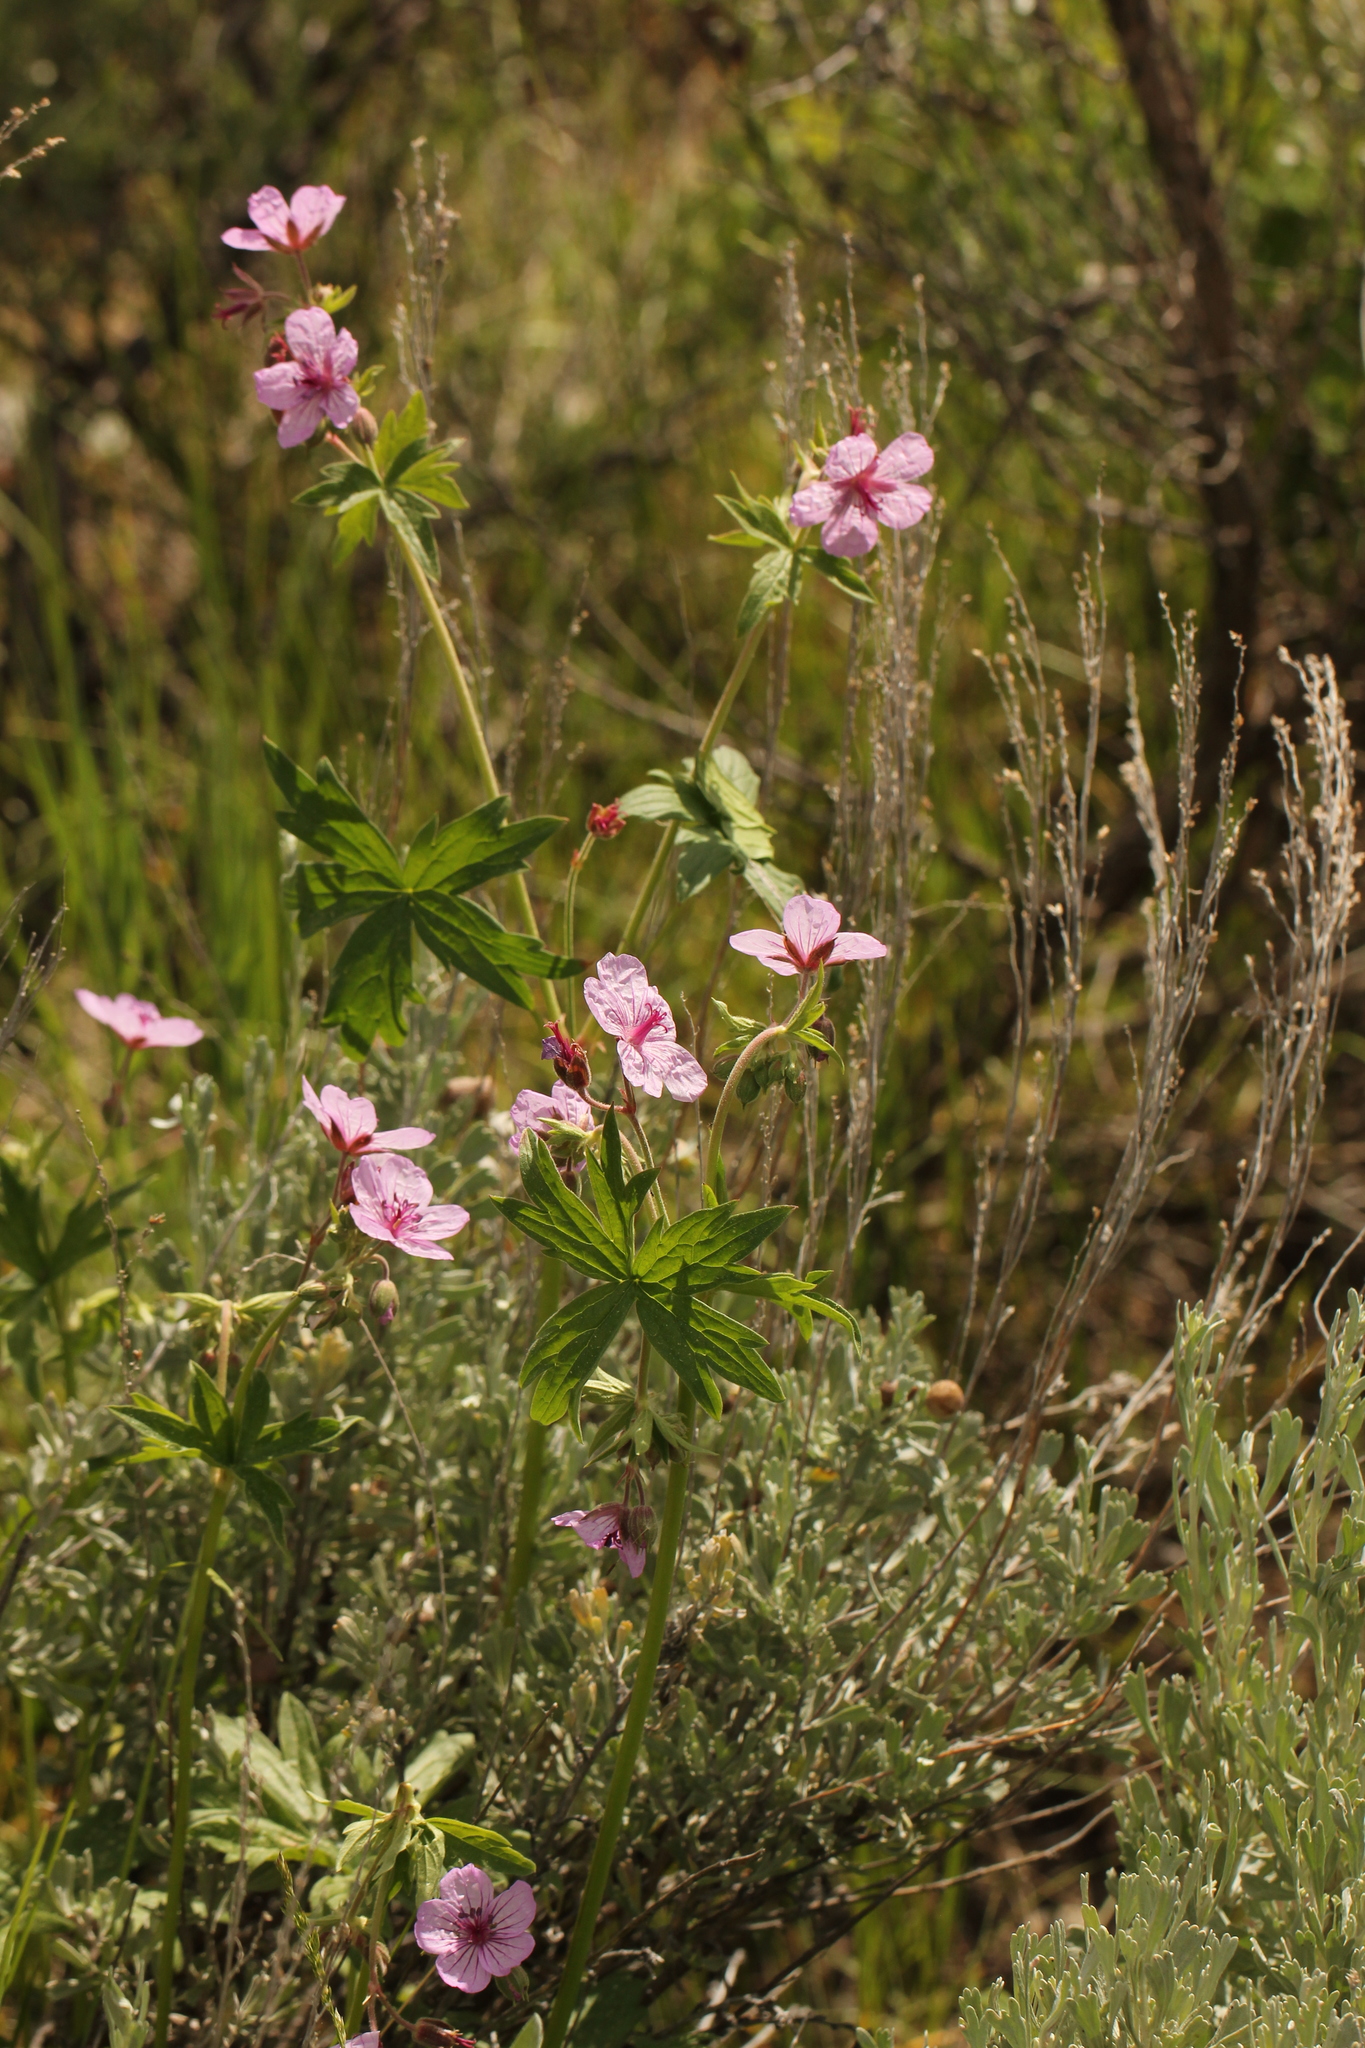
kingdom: Plantae
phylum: Tracheophyta
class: Magnoliopsida
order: Geraniales
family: Geraniaceae
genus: Geranium
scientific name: Geranium viscosissimum
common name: Purple geranium
